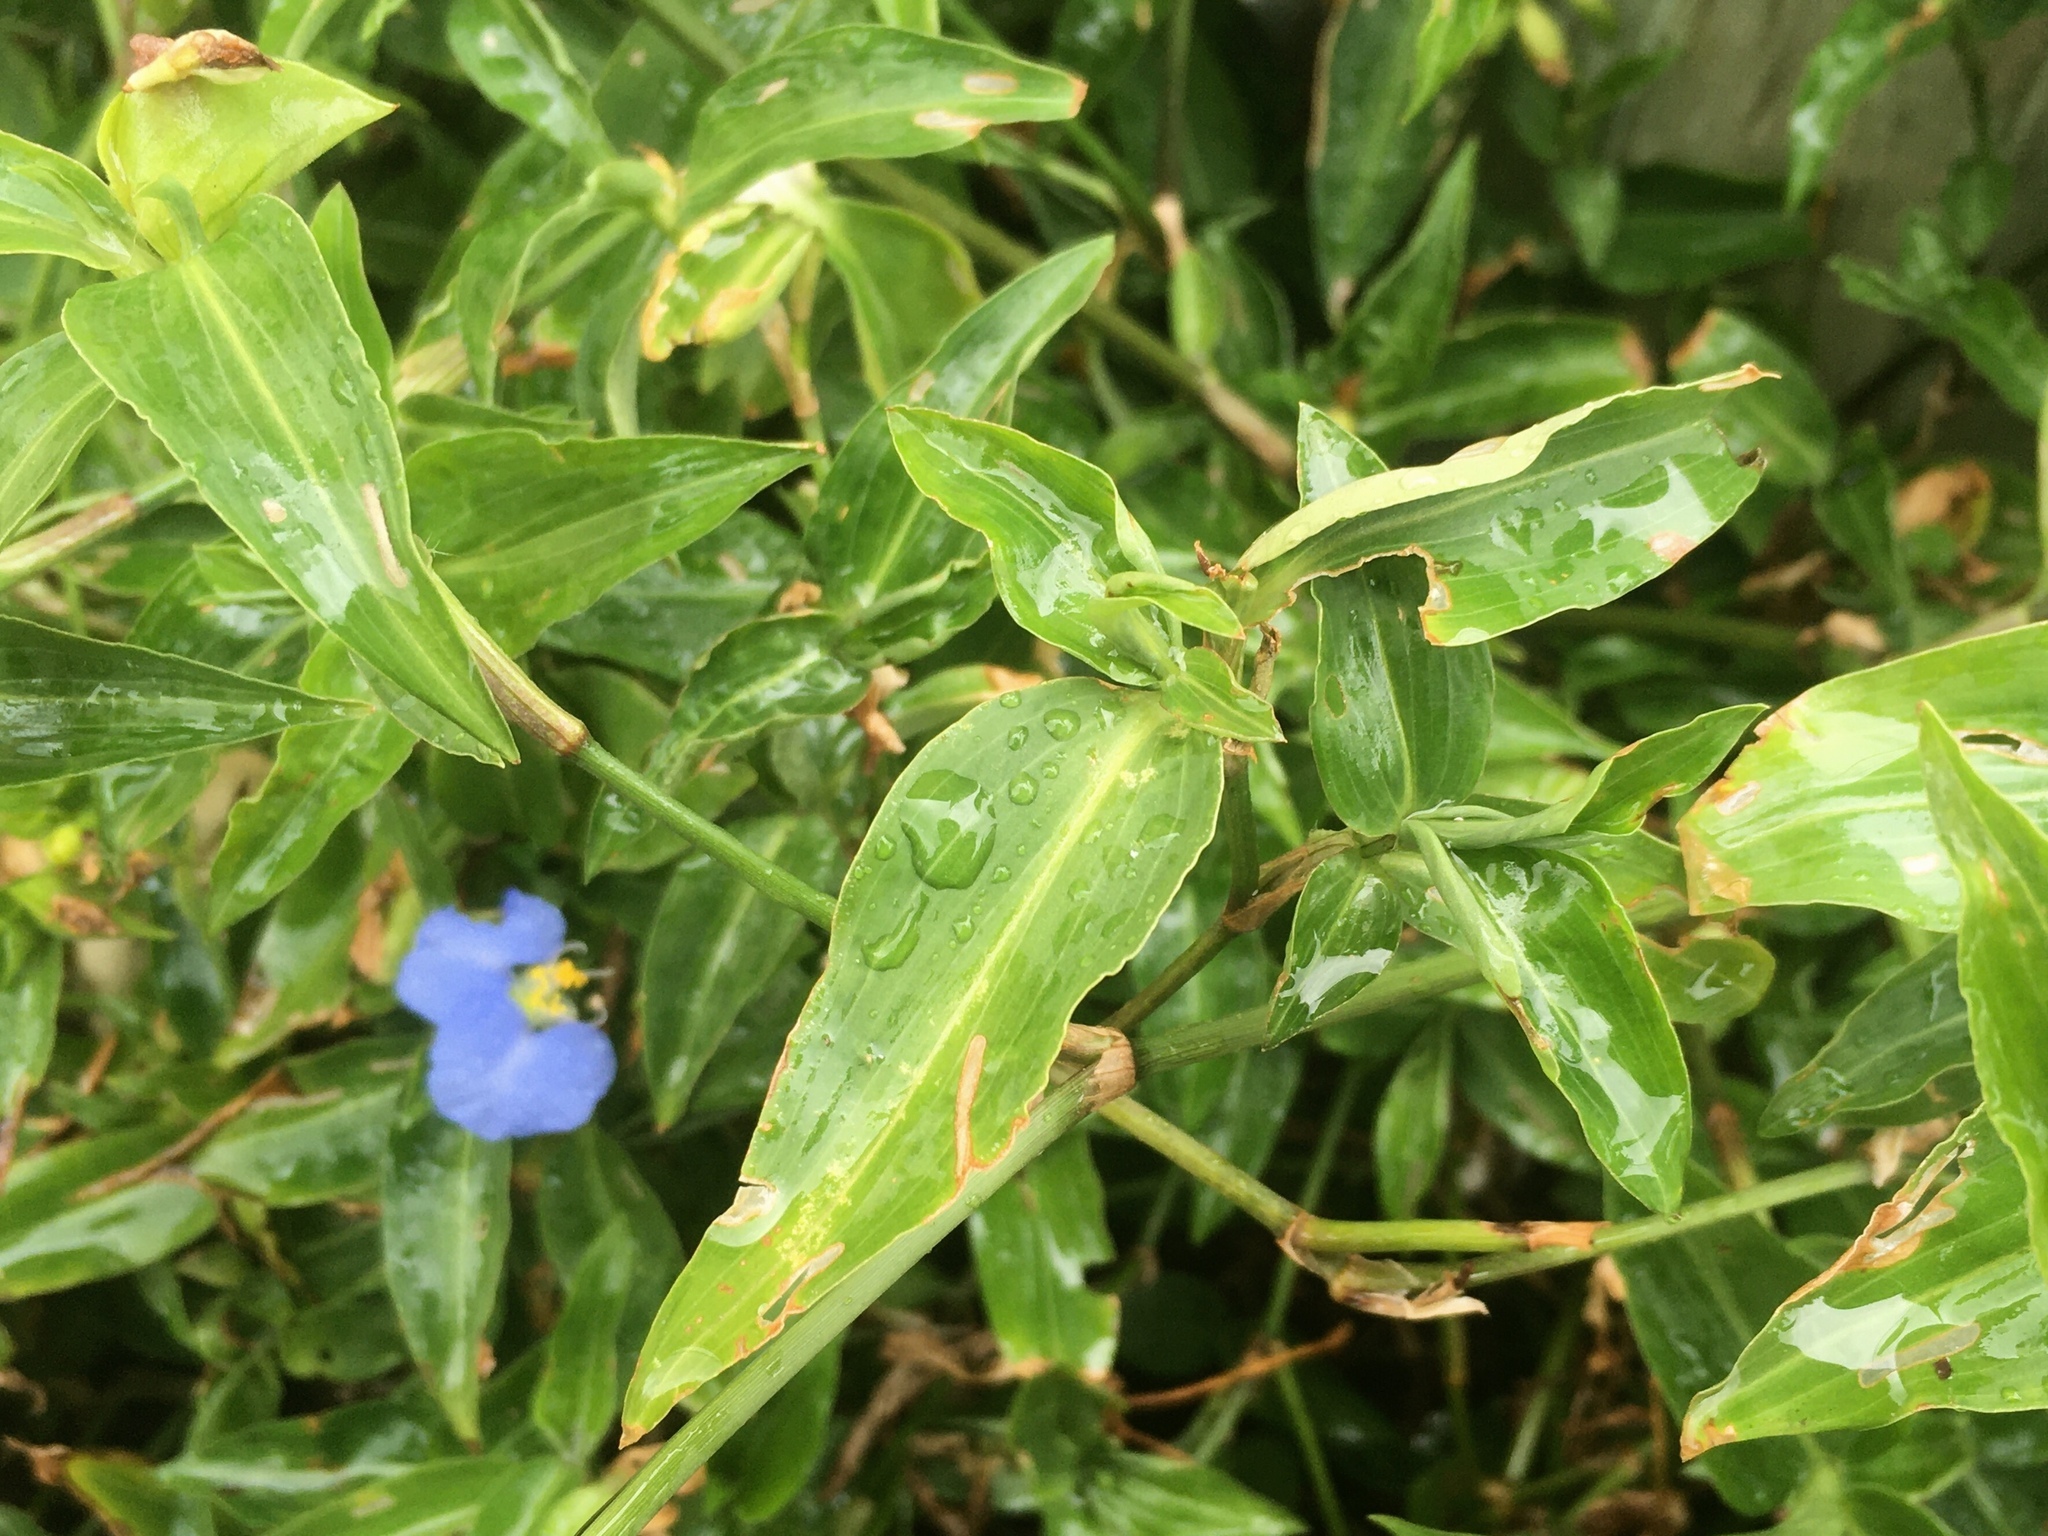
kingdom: Plantae
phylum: Tracheophyta
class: Liliopsida
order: Commelinales
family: Commelinaceae
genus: Commelina
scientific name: Commelina erecta
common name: Blousel blommetjie
